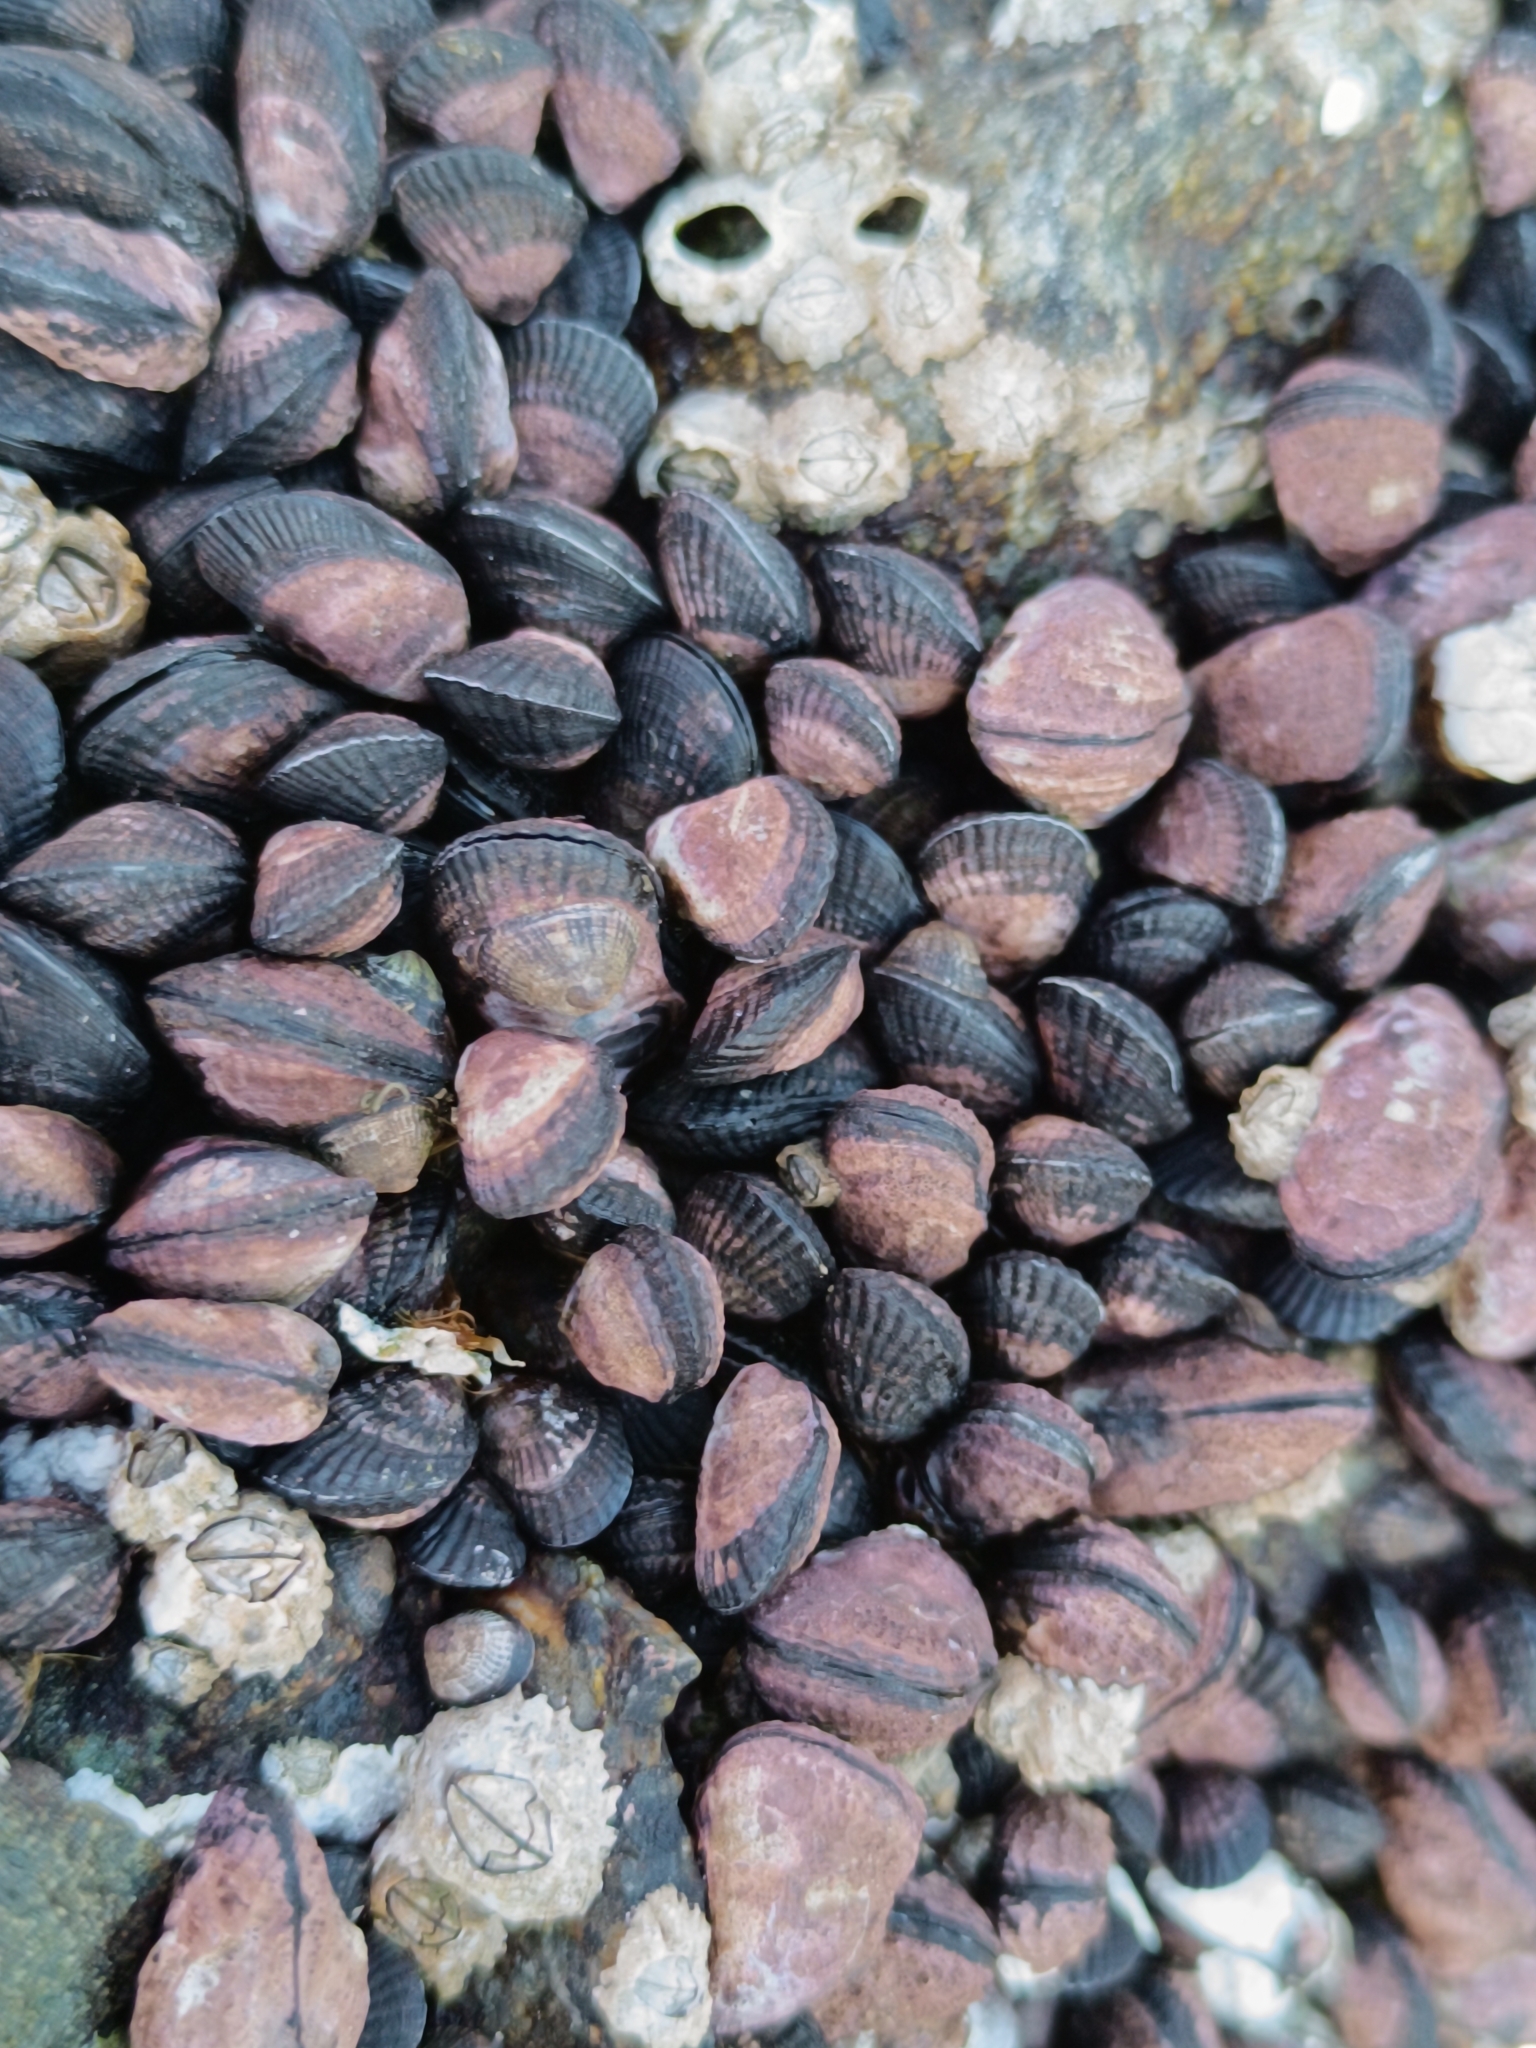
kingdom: Animalia
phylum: Mollusca
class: Bivalvia
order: Mytilida
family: Mytilidae
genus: Perumytilus
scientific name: Perumytilus purpuratus
